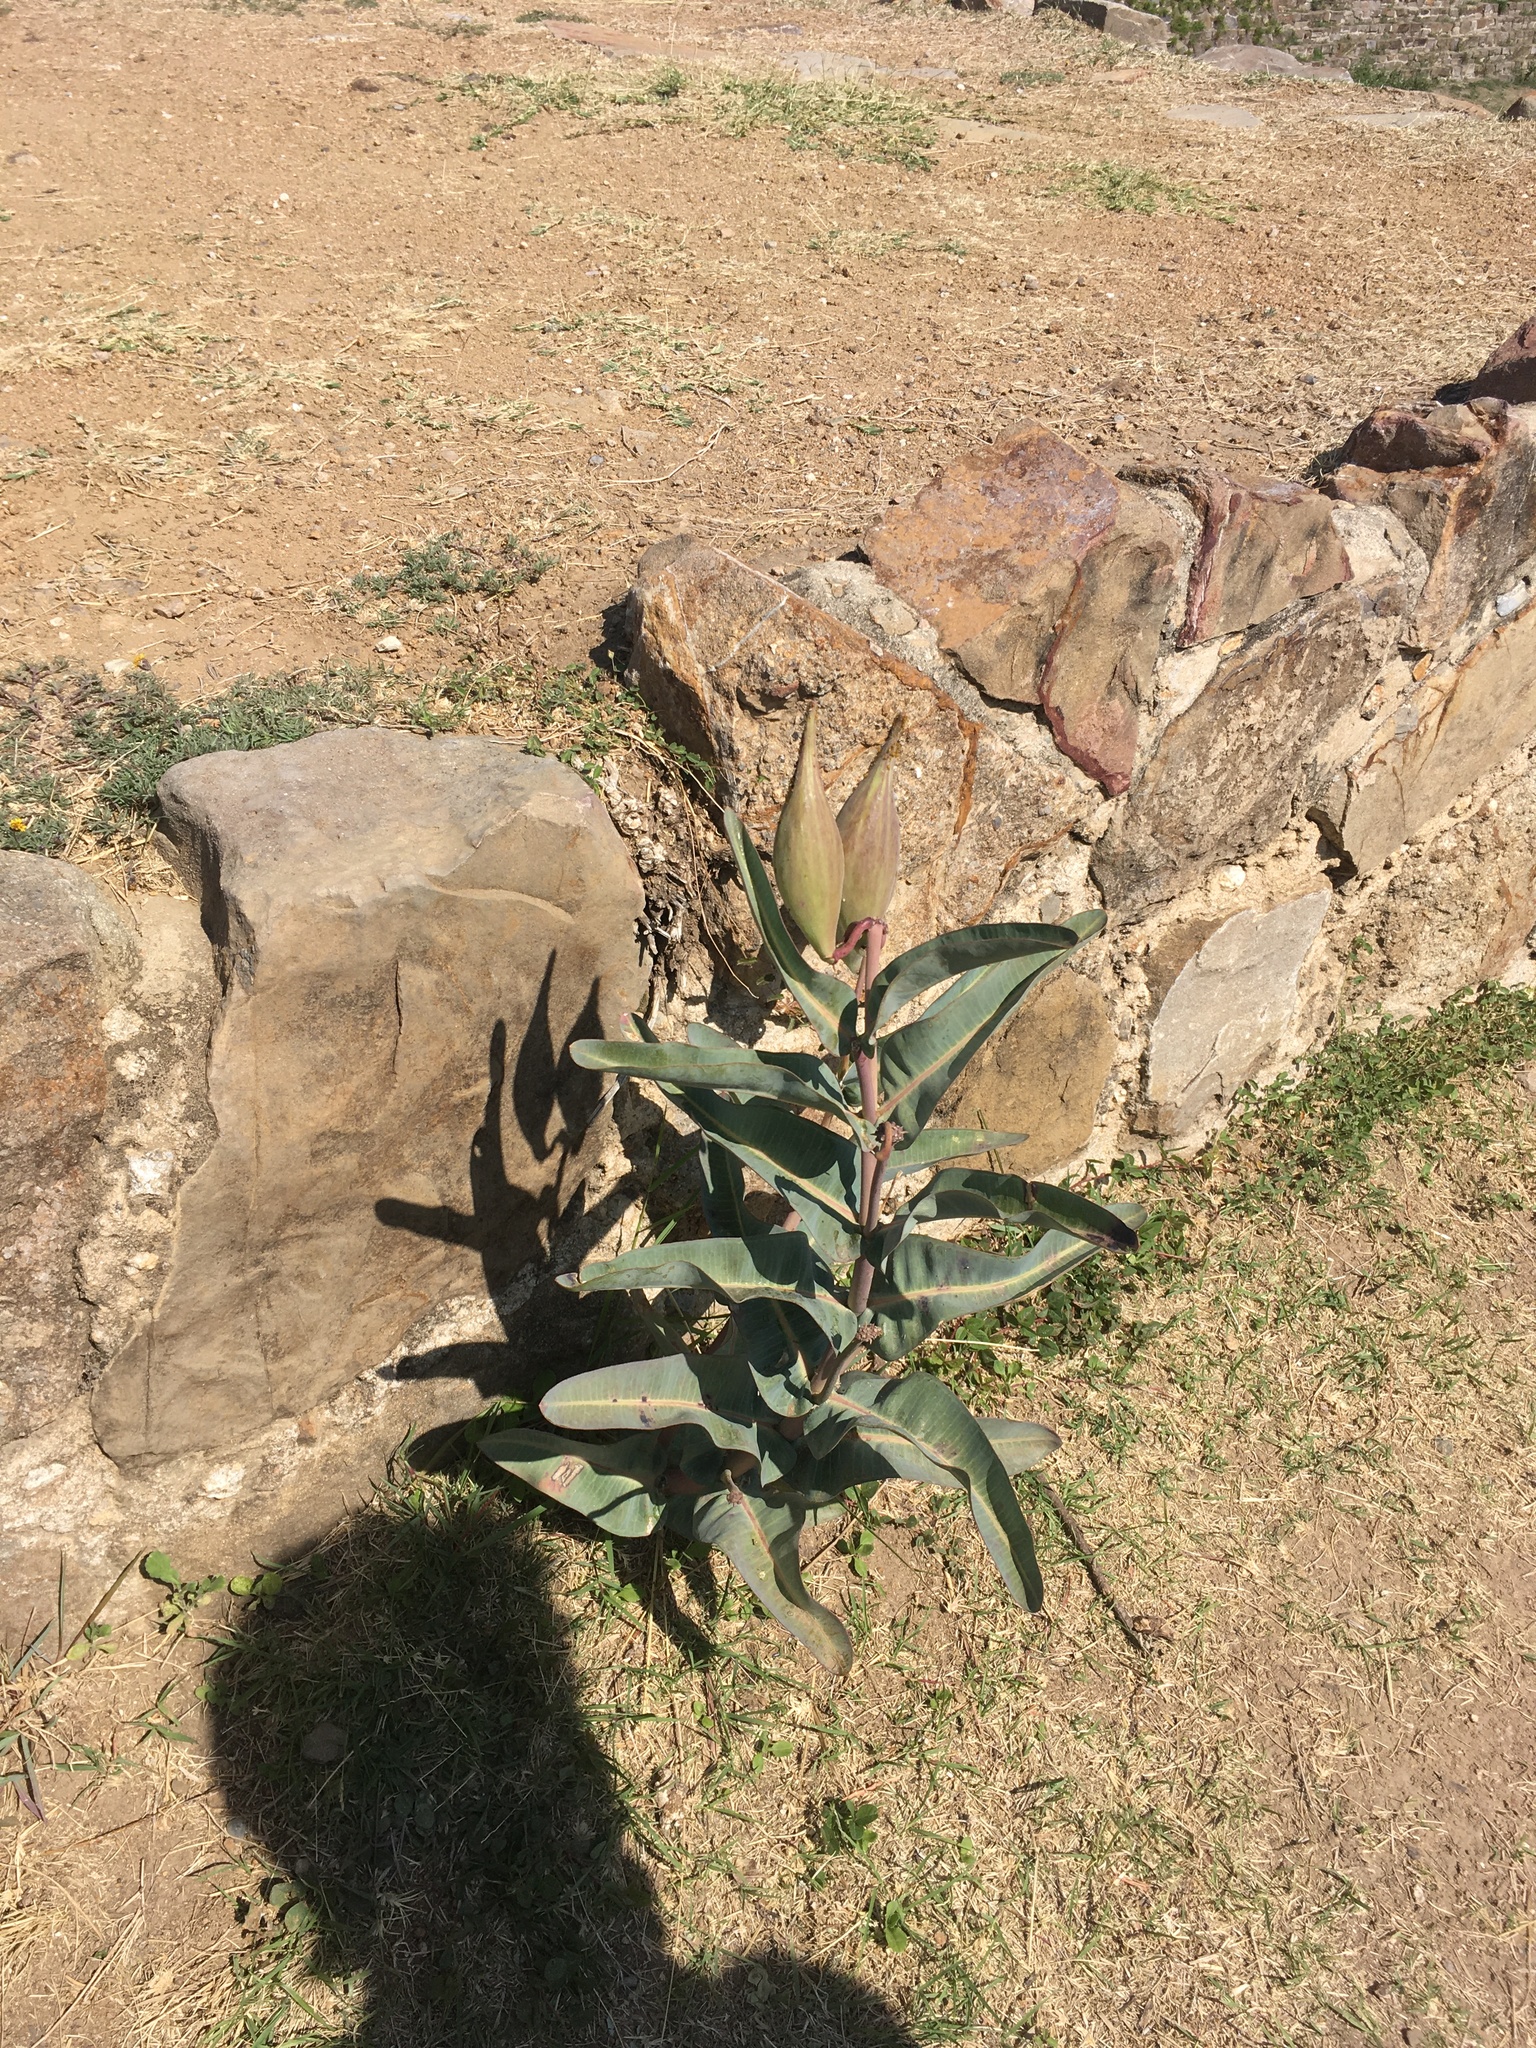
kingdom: Plantae
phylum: Tracheophyta
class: Magnoliopsida
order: Gentianales
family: Apocynaceae
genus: Asclepias
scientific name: Asclepias glaucescens
